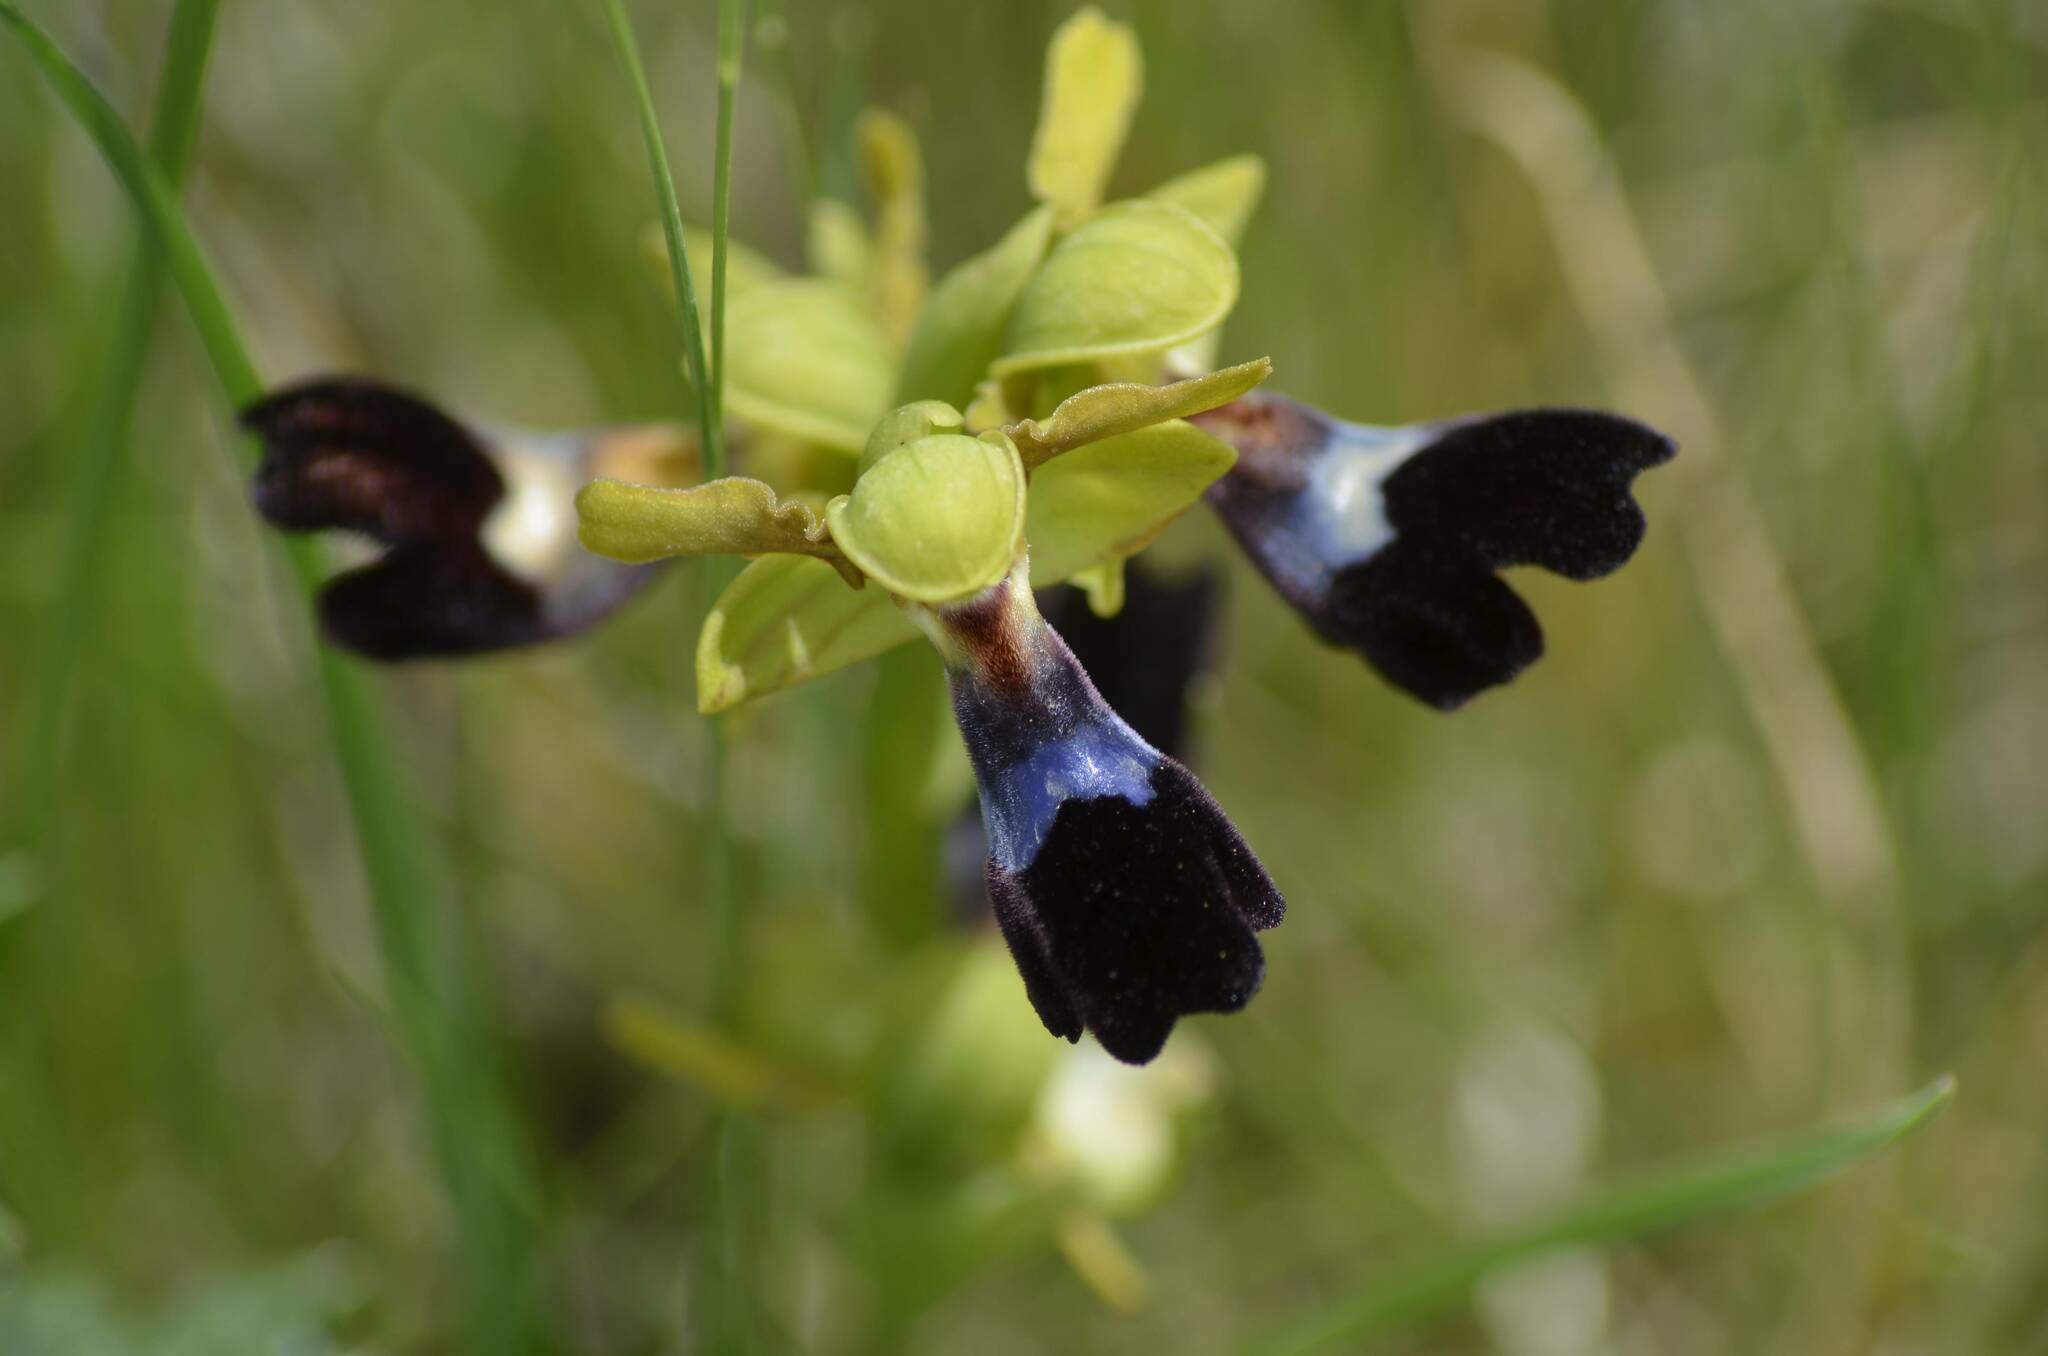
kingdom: Plantae
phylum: Tracheophyta
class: Liliopsida
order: Asparagales
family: Orchidaceae
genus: Ophrys
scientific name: Ophrys atlantica
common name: Atlantic ophrys
